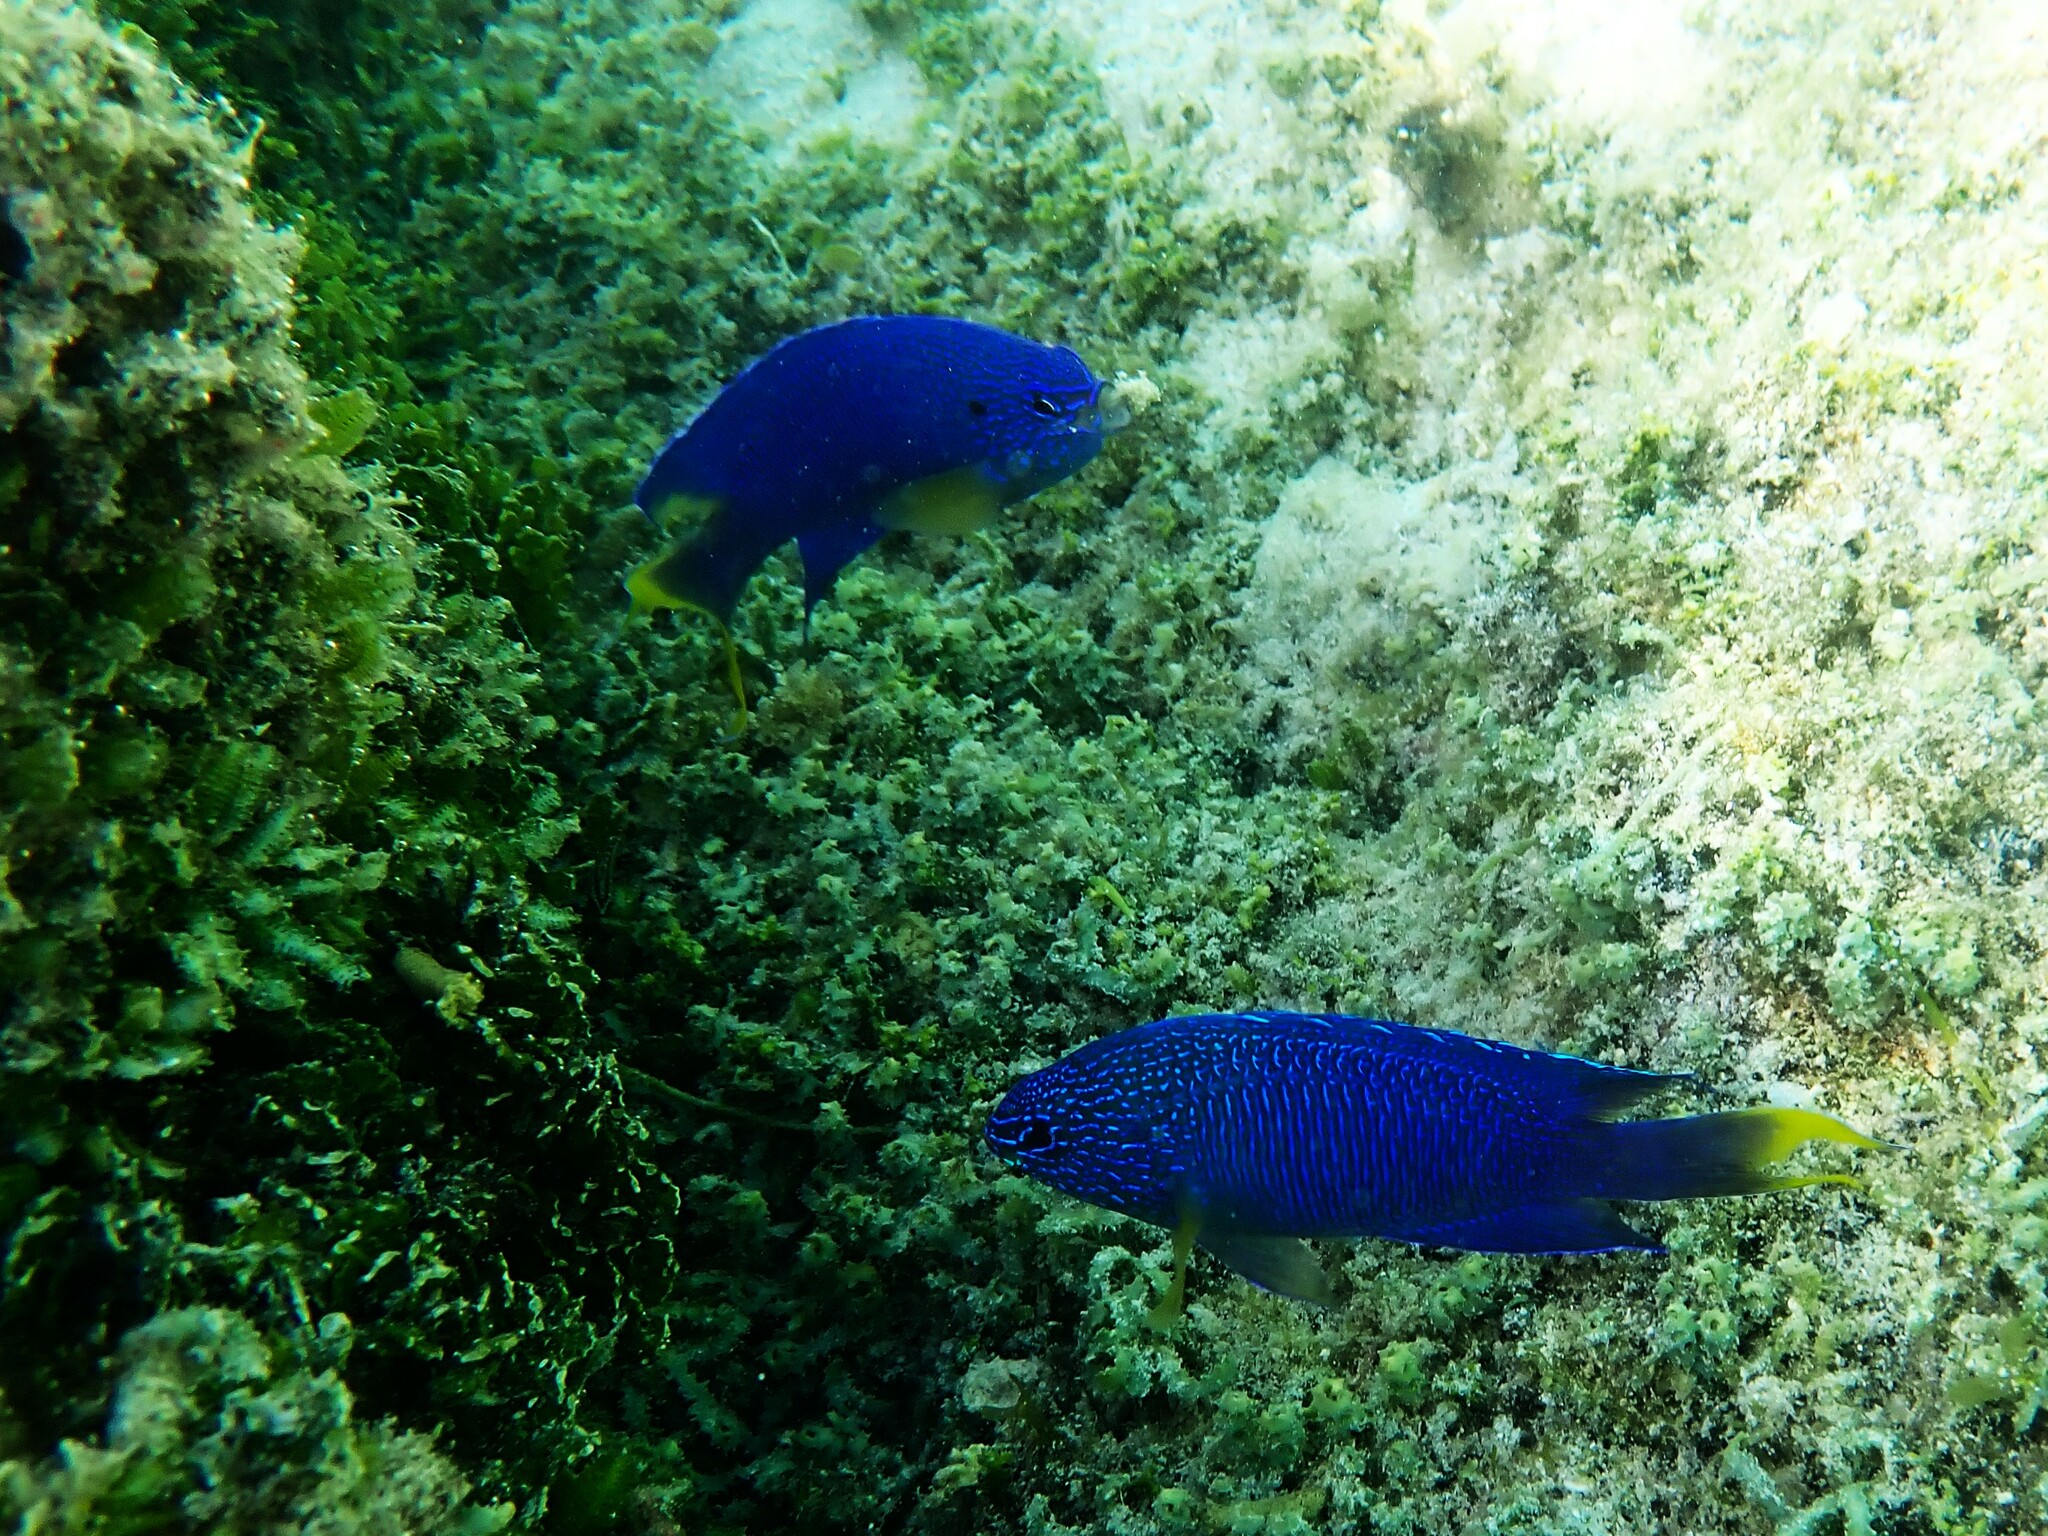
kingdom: Animalia
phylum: Chordata
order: Perciformes
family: Pomacentridae
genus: Pomacentrus
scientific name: Pomacentrus pavo
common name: Sapphire damsel
